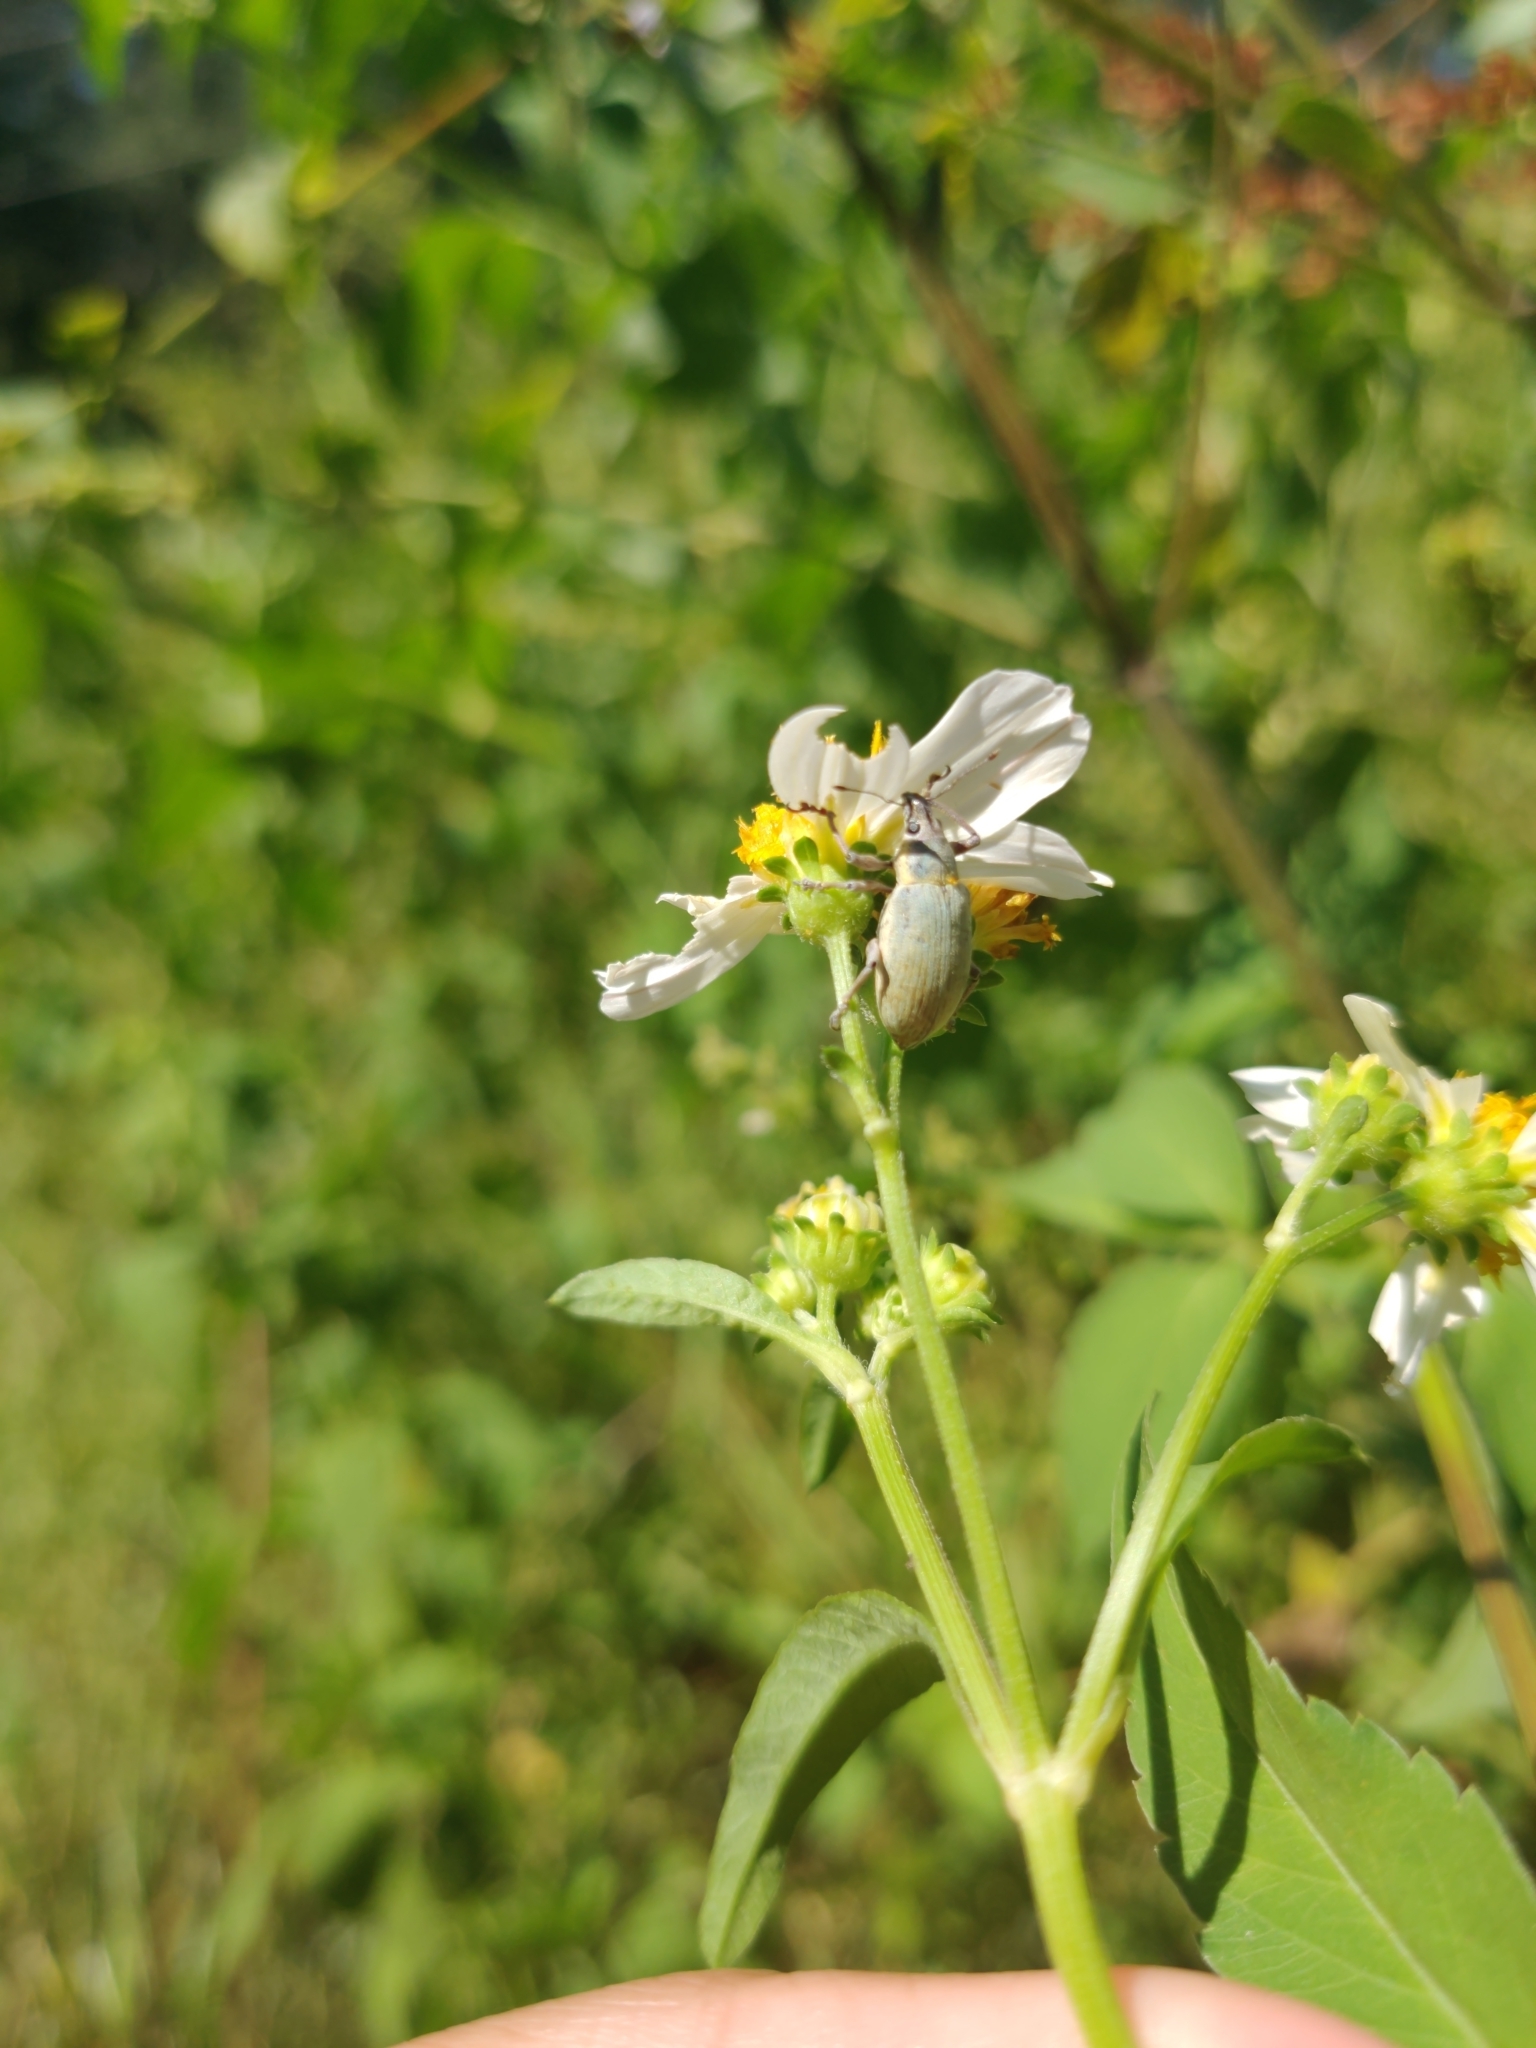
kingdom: Animalia
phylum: Arthropoda
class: Insecta
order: Coleoptera
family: Curculionidae
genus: Pachnaeus
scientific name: Pachnaeus opalus
